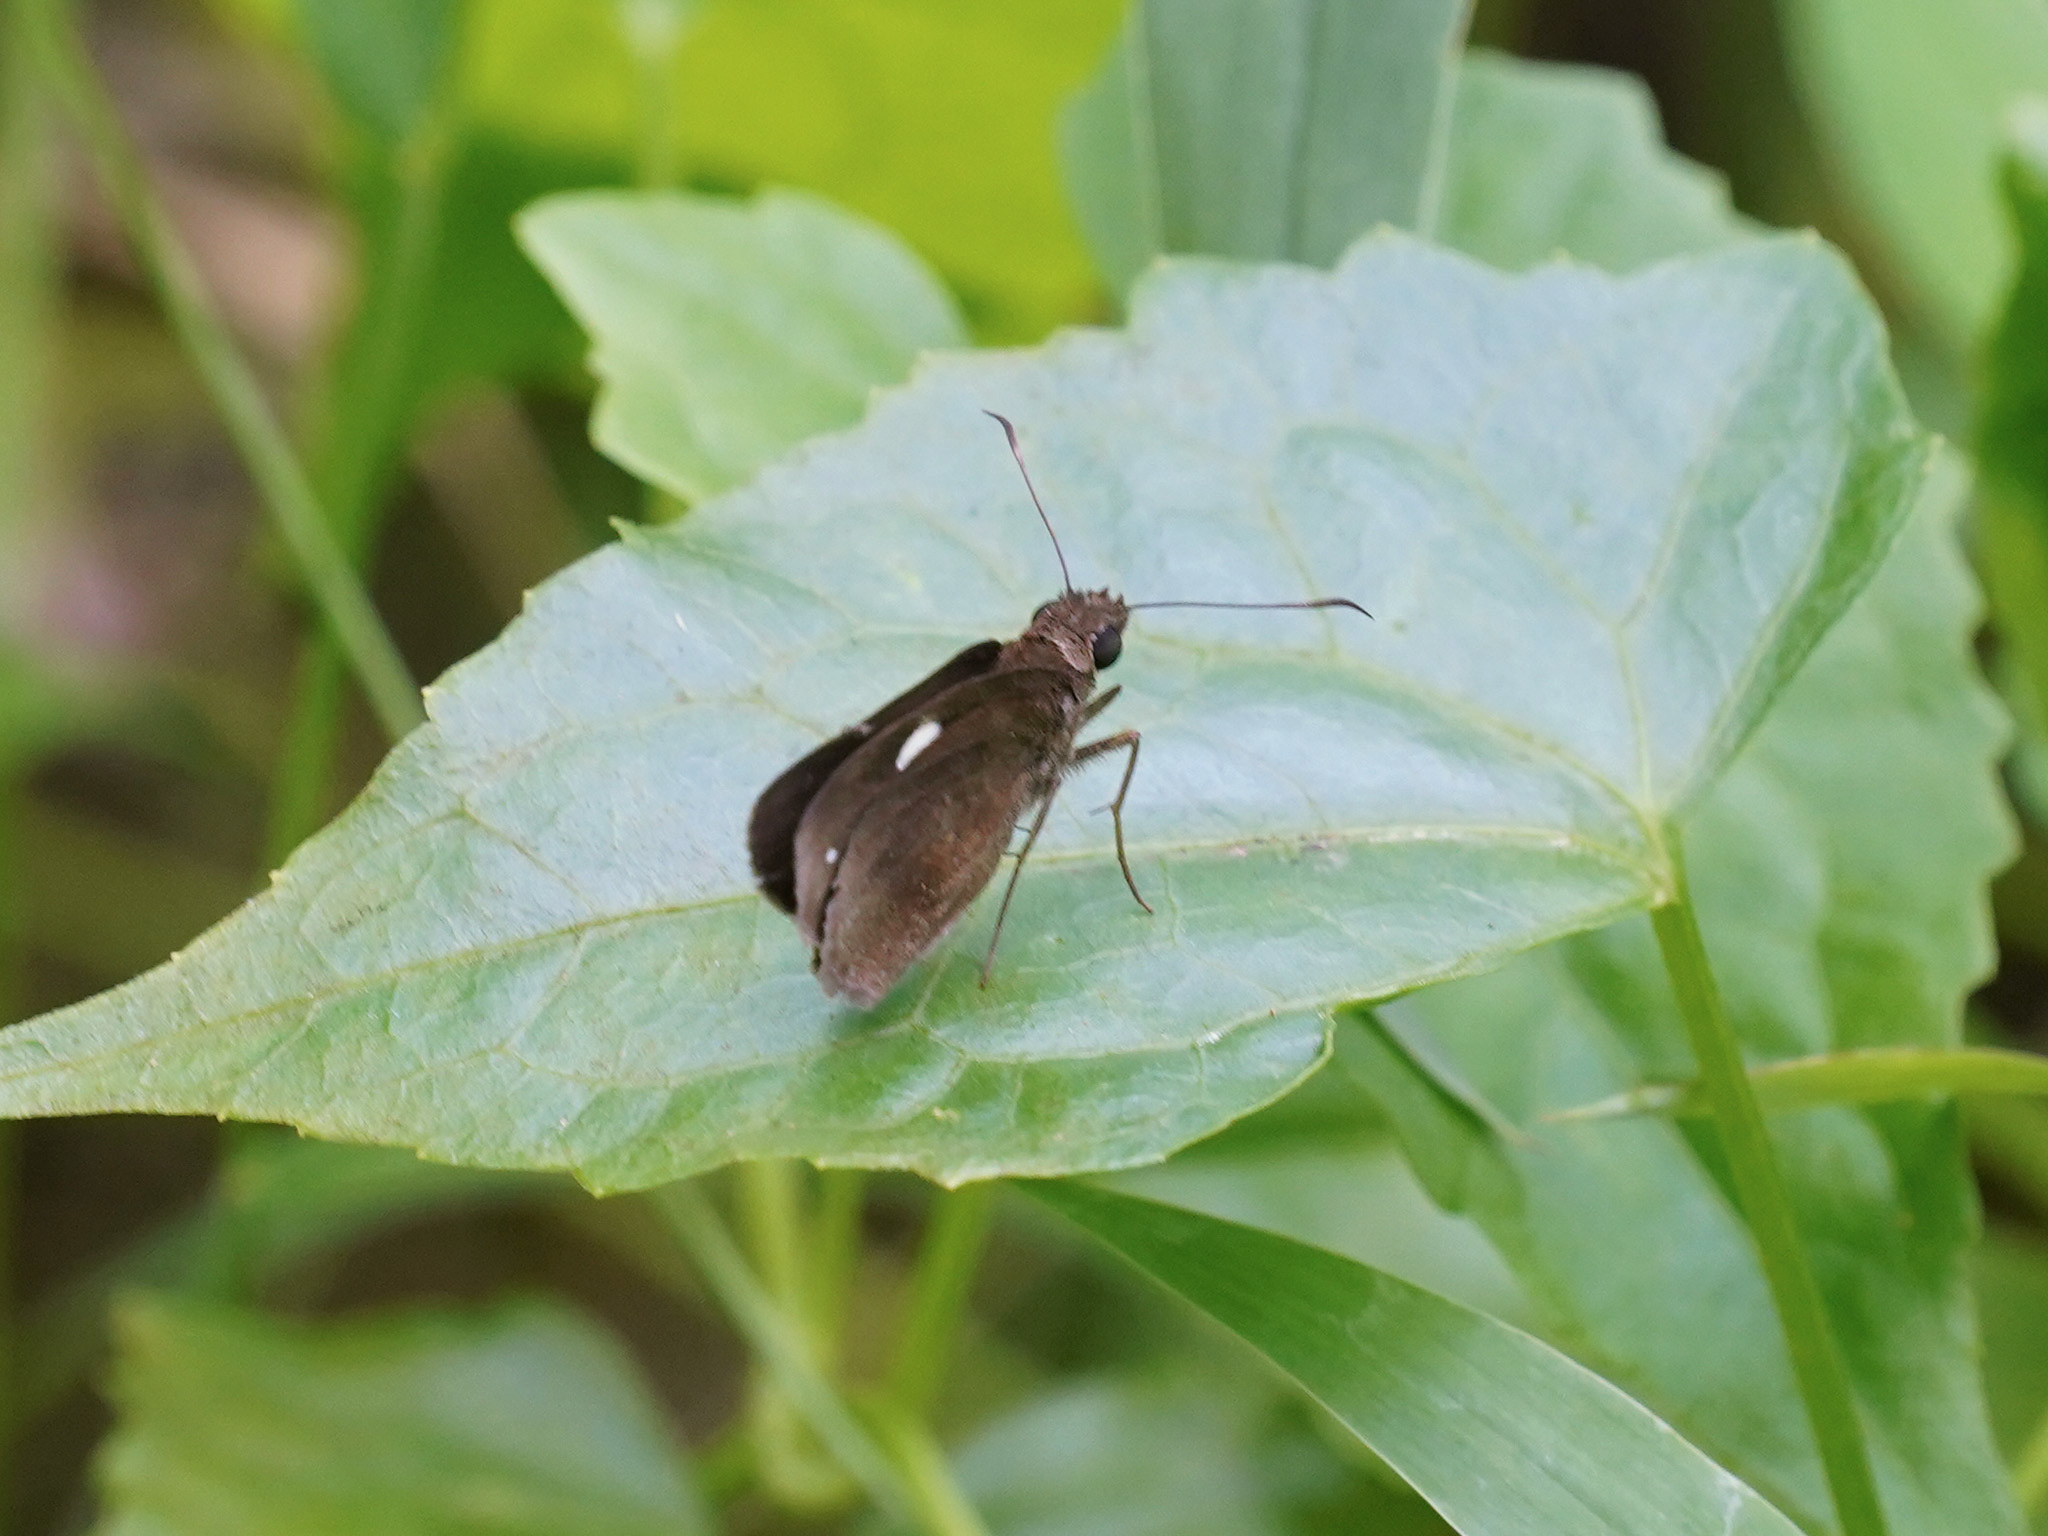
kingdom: Animalia
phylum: Arthropoda
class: Insecta
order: Lepidoptera
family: Hesperiidae
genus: Notocrypta
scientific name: Notocrypta paralysos
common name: Common banded demon
